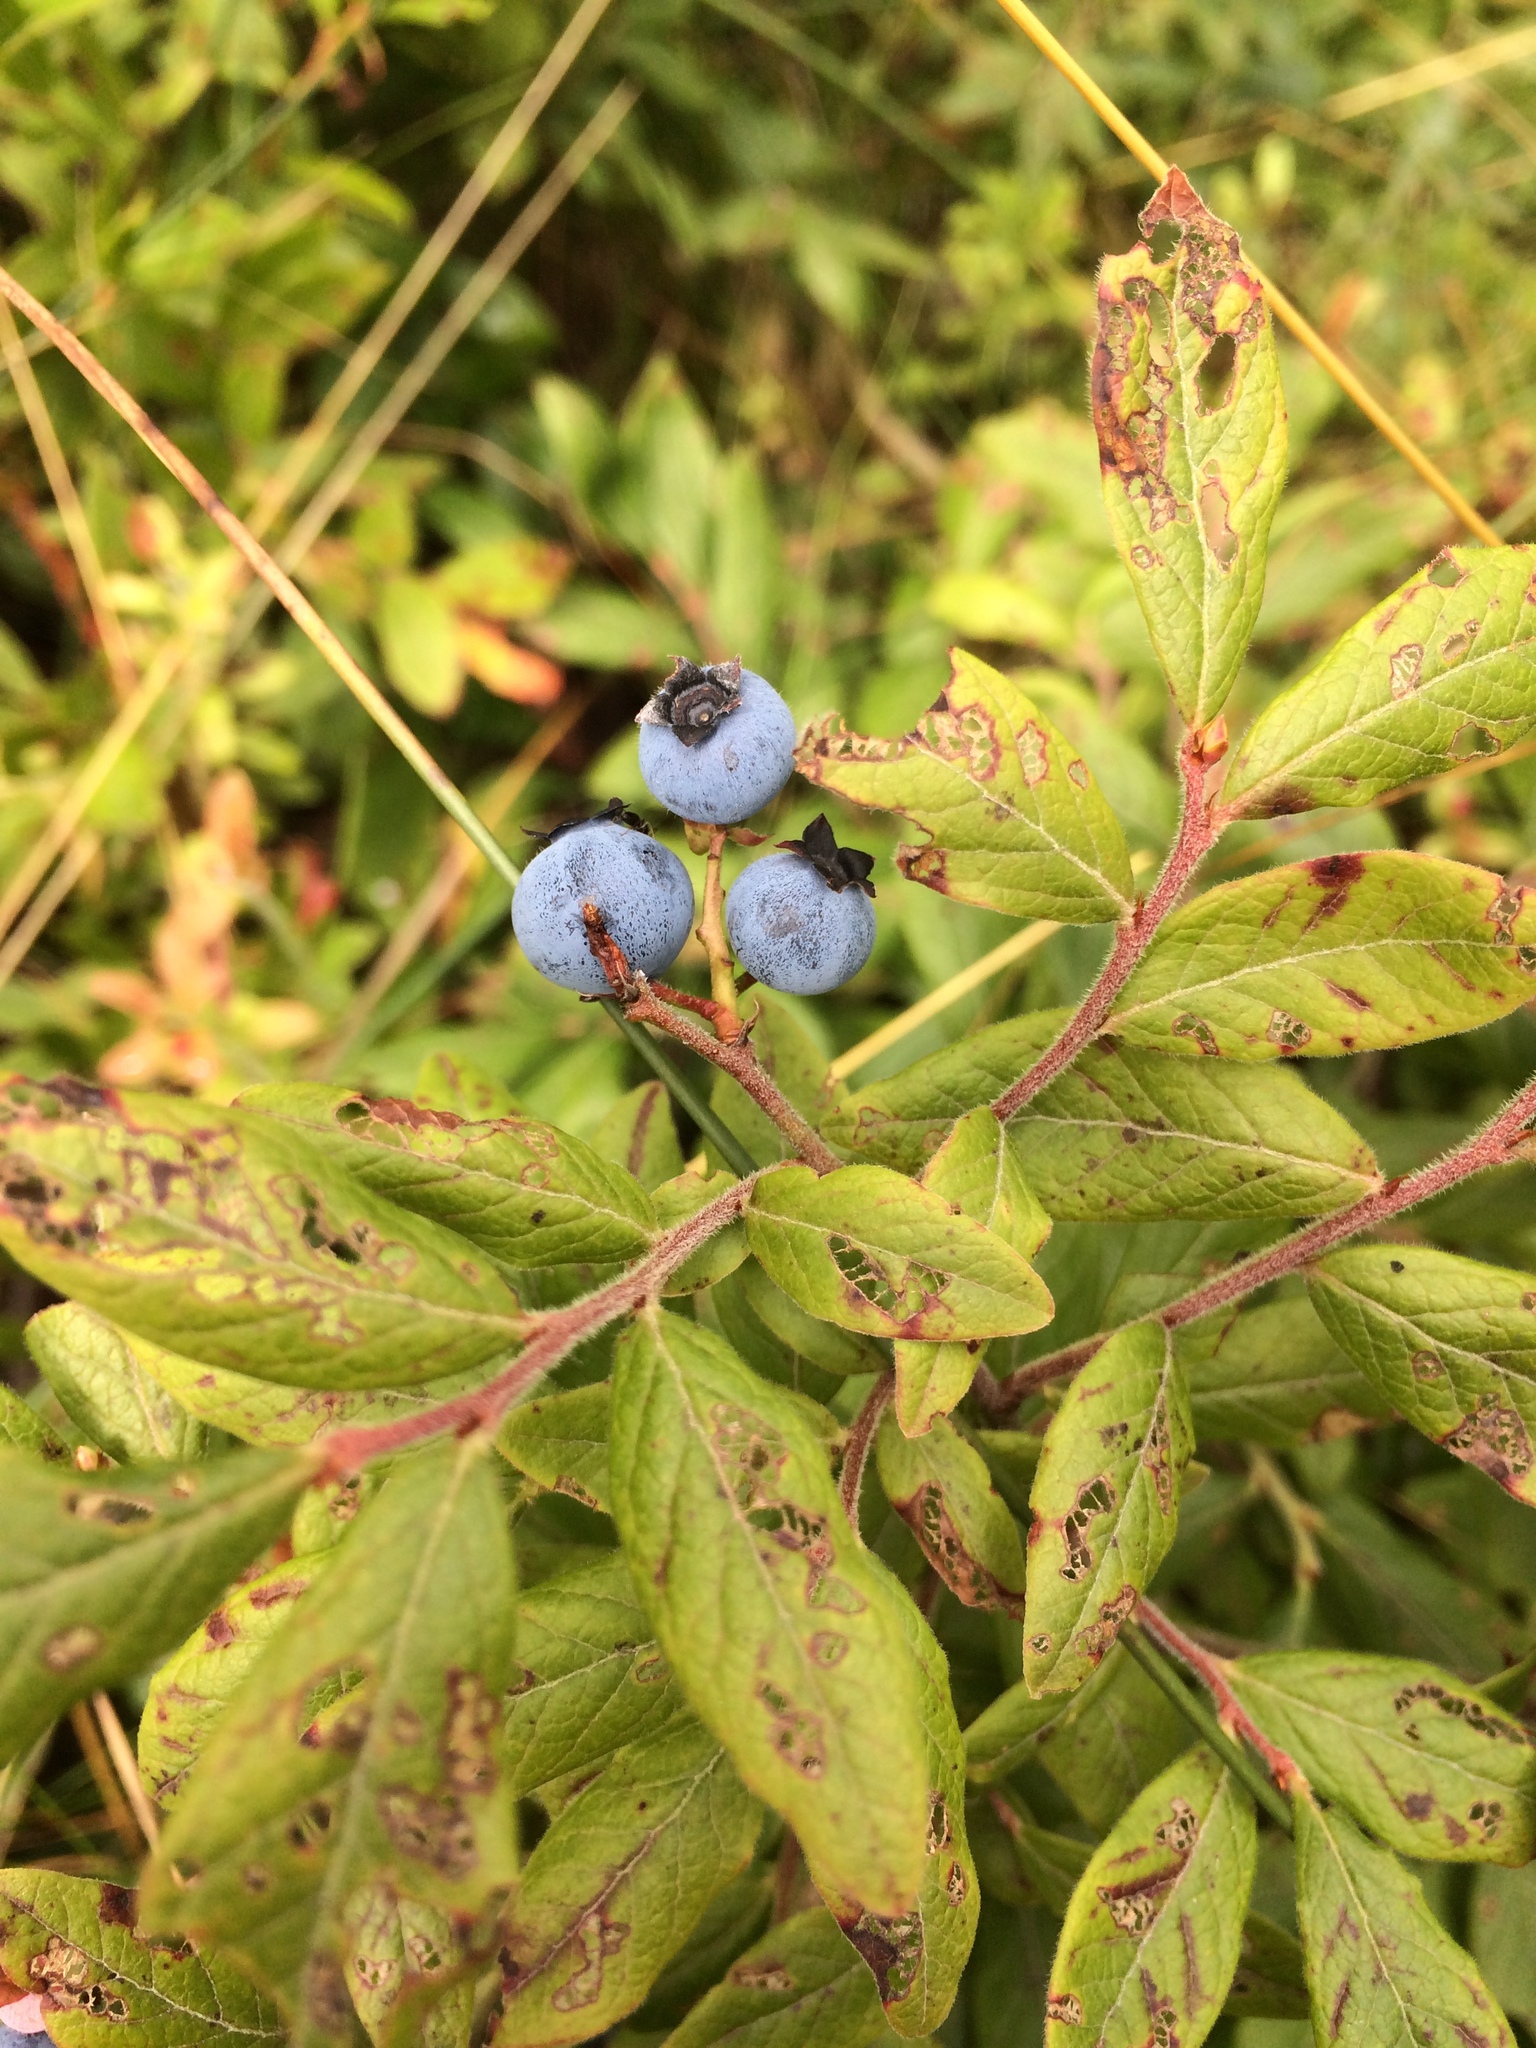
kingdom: Plantae
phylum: Tracheophyta
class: Magnoliopsida
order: Ericales
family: Ericaceae
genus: Vaccinium
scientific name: Vaccinium myrtilloides
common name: Canada blueberry
